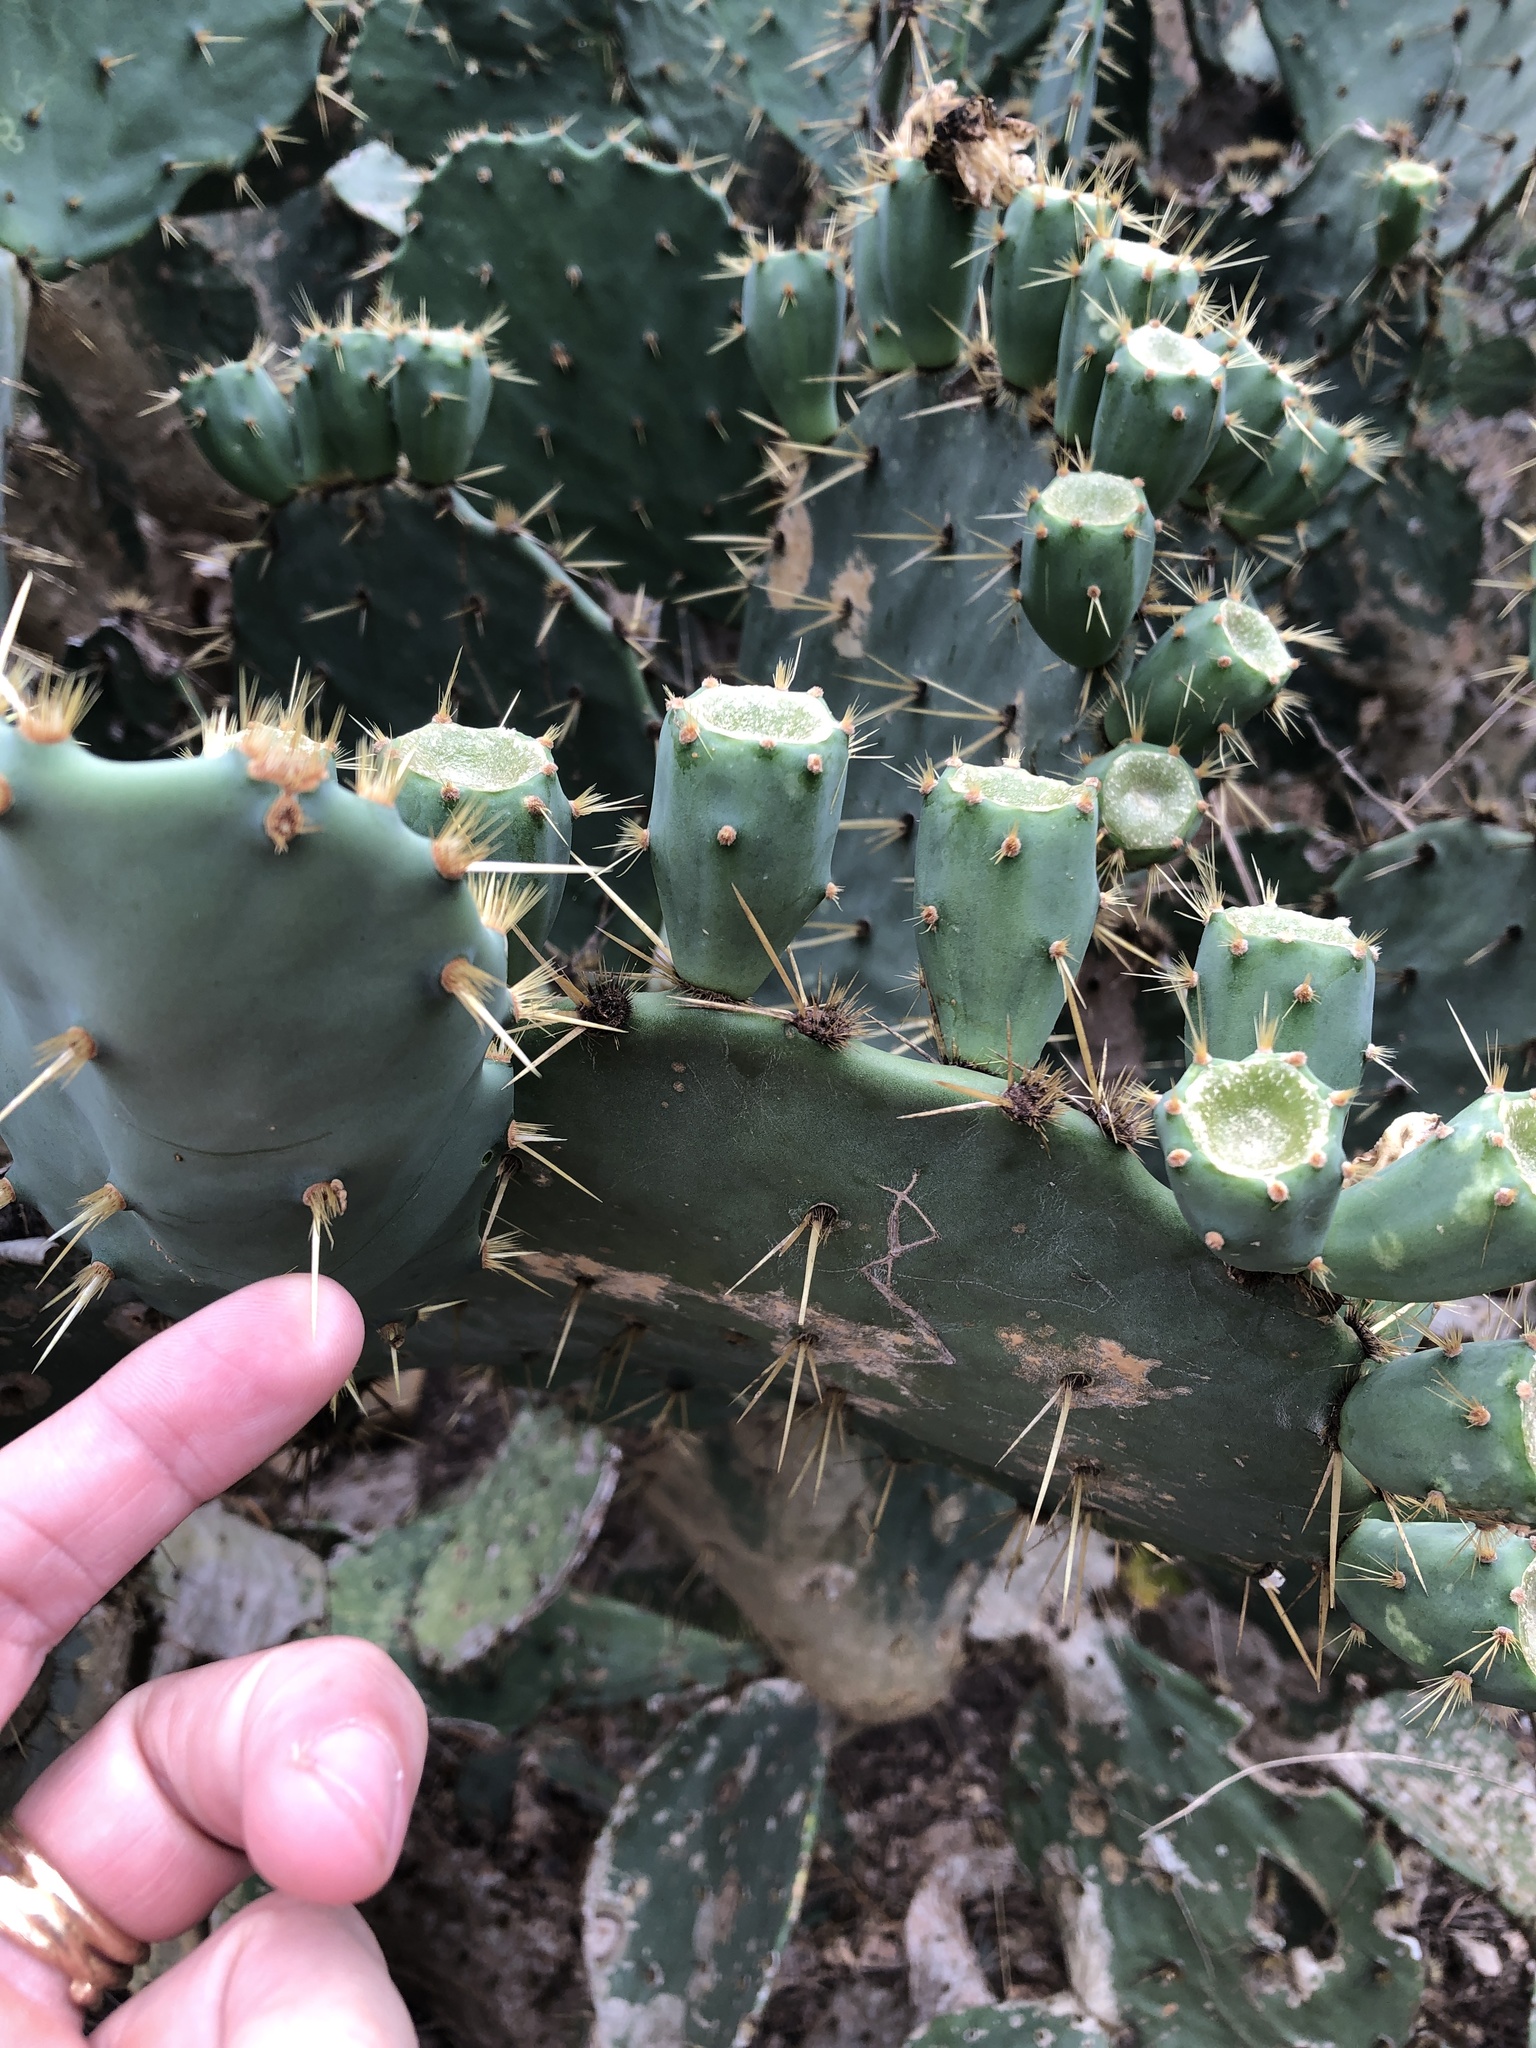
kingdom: Plantae
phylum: Tracheophyta
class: Magnoliopsida
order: Caryophyllales
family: Cactaceae
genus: Opuntia
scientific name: Opuntia alta
